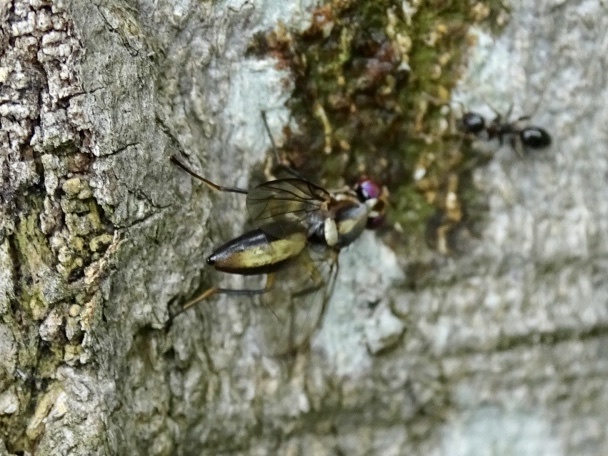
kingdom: Animalia
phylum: Arthropoda
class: Insecta
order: Diptera
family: Tephritidae
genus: Dimeringophrys
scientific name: Dimeringophrys pallidipennis
